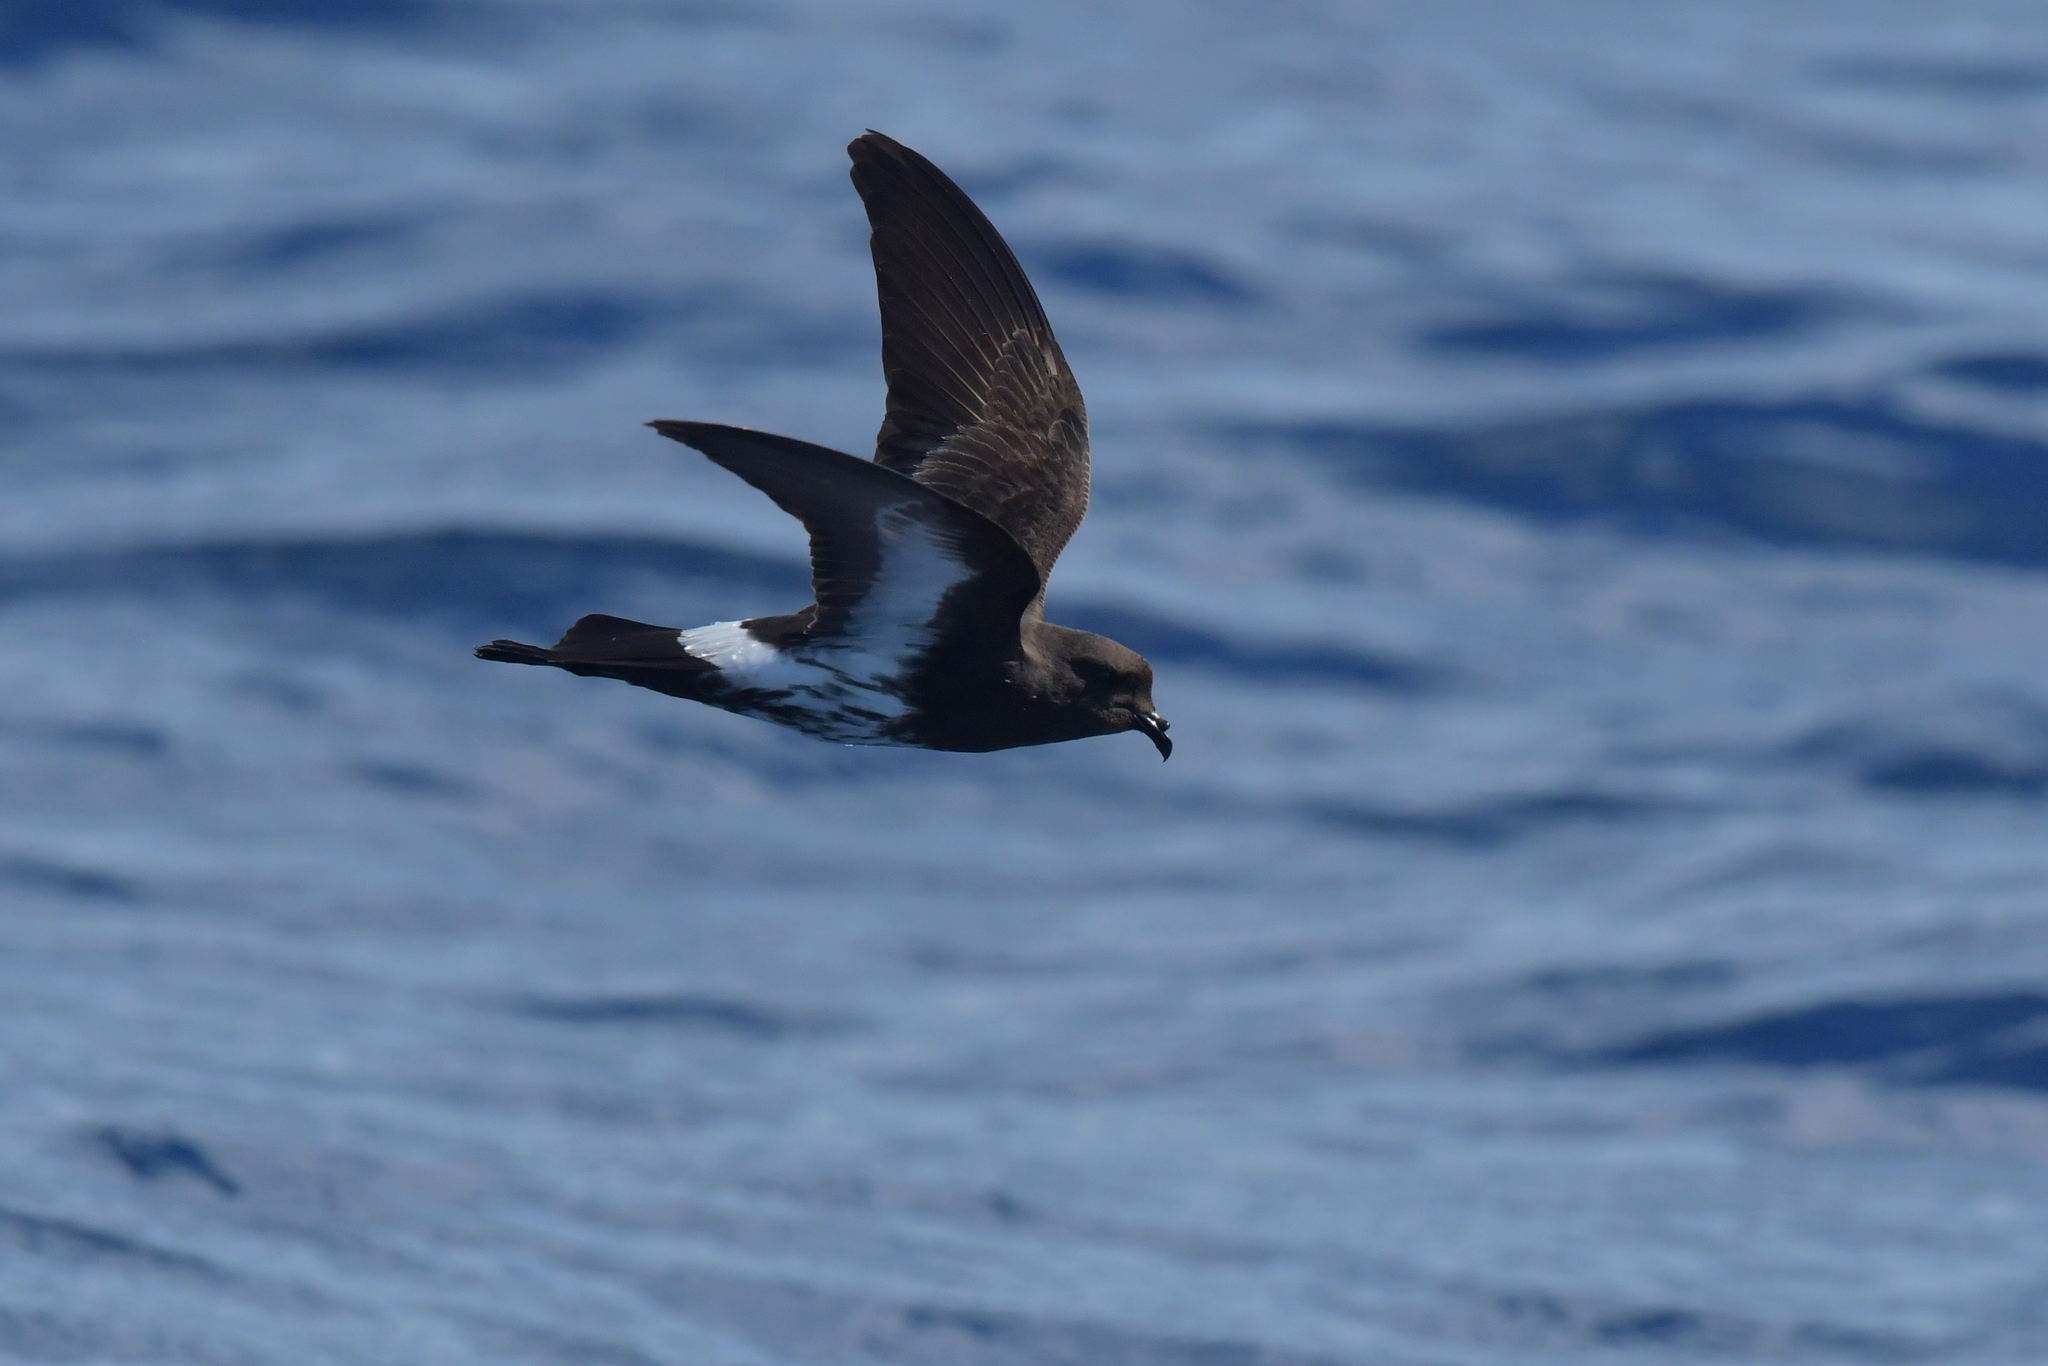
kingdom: Animalia
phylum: Chordata
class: Aves
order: Procellariiformes
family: Hydrobatidae
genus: Oceanites
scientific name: Oceanites maorianus
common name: New zealand storm petrel
